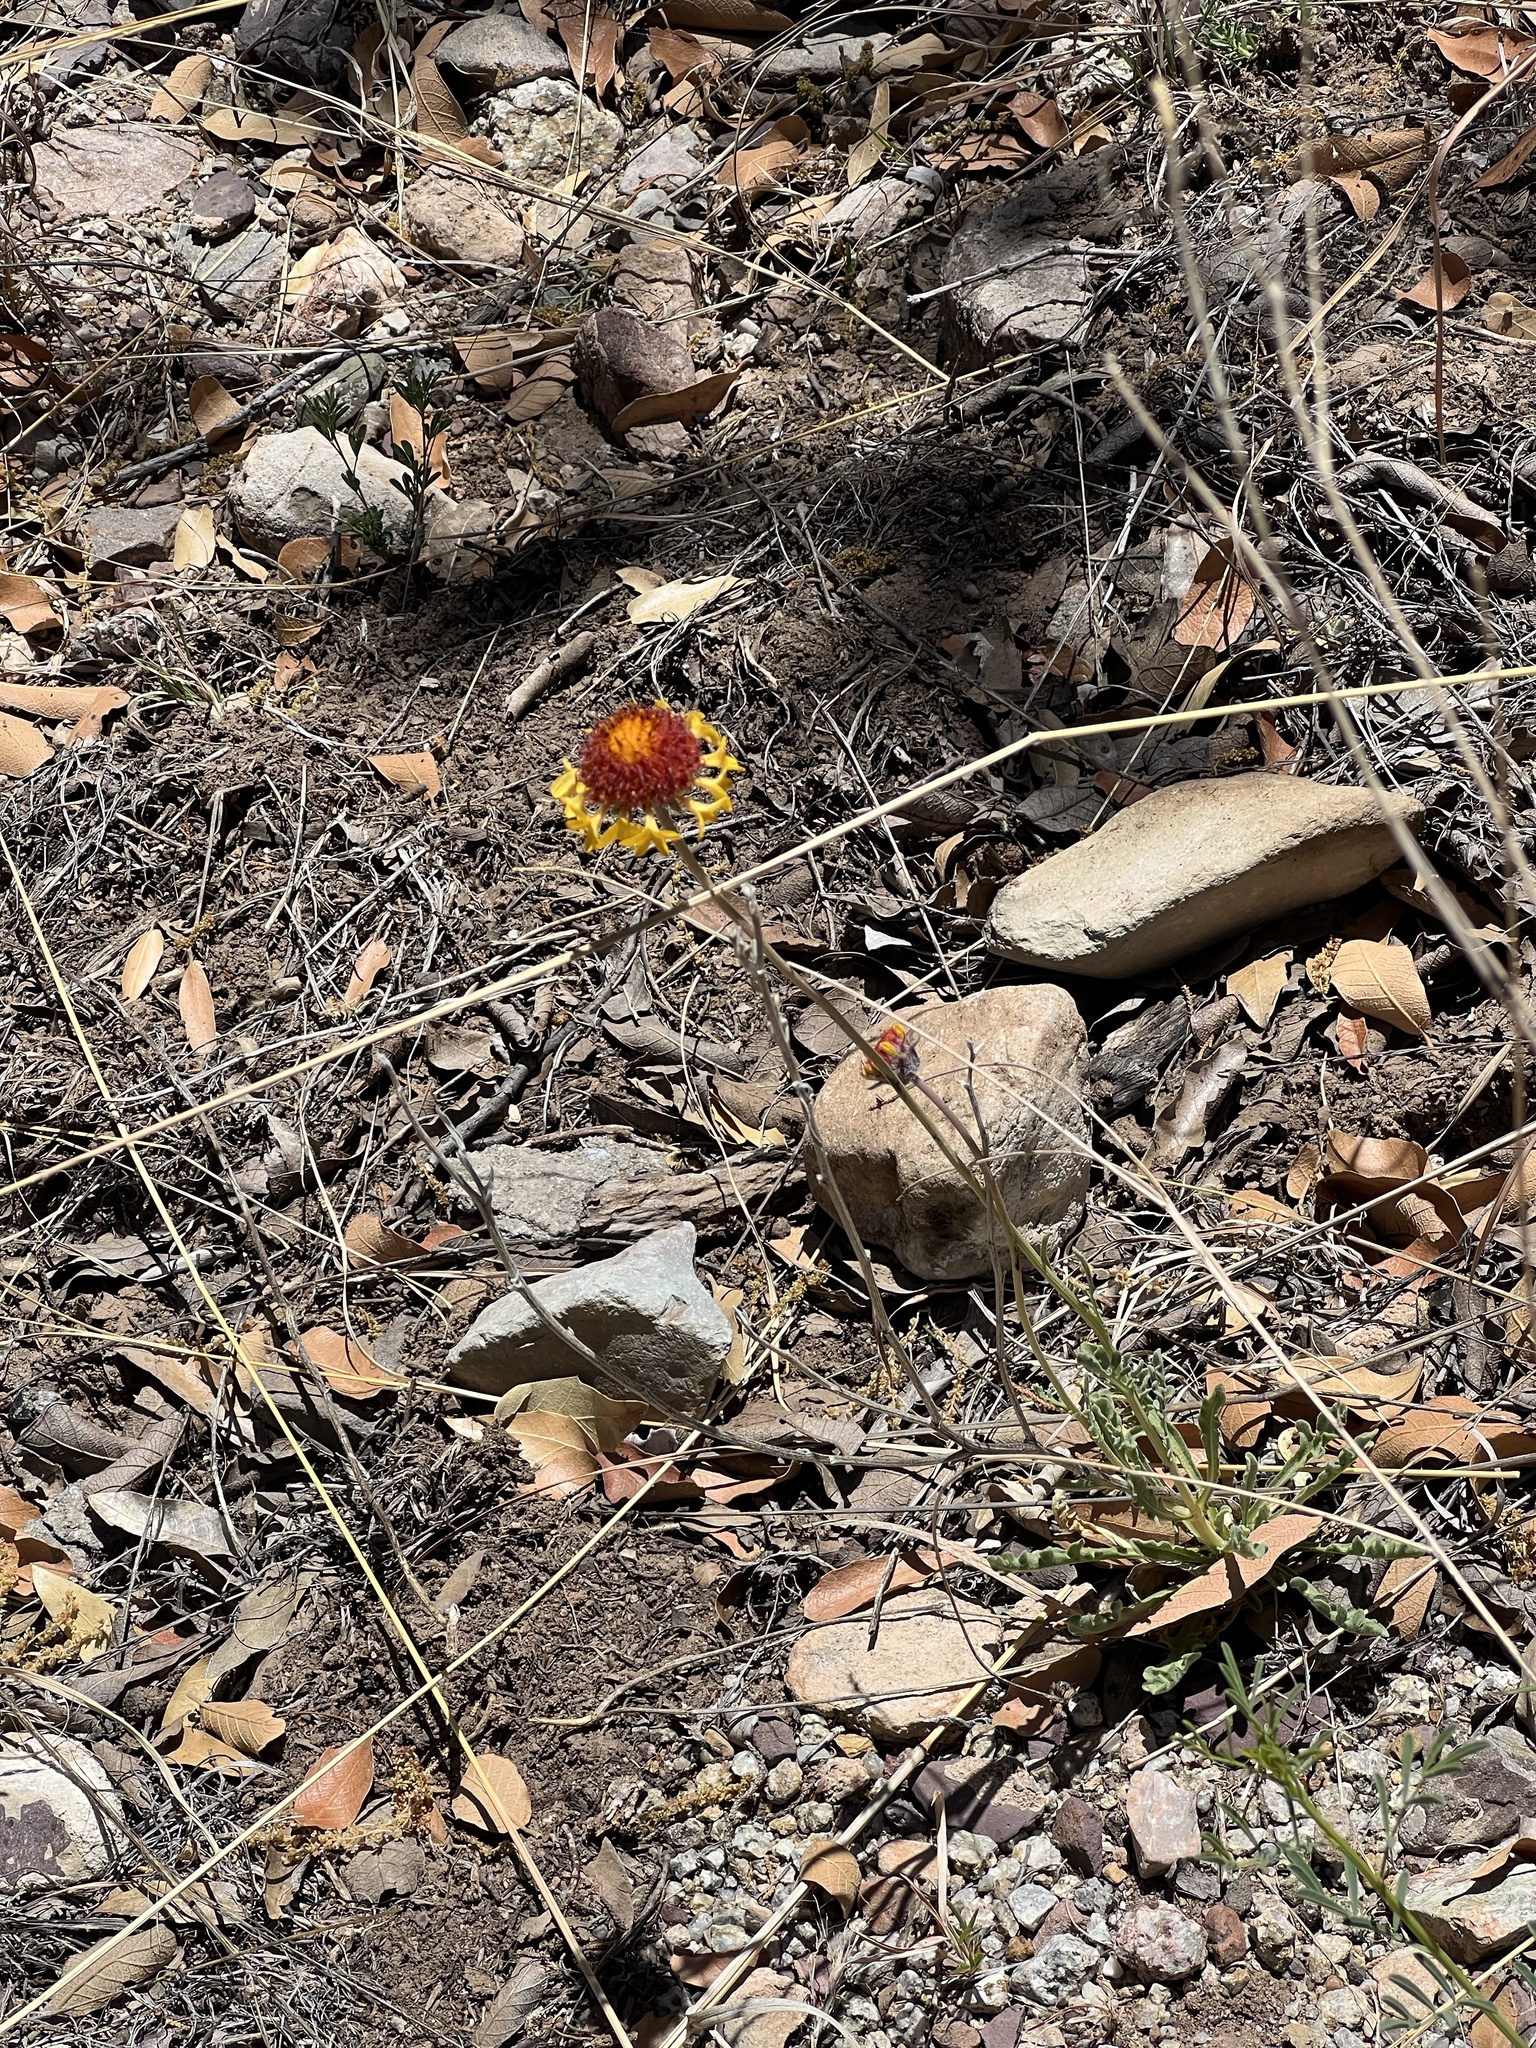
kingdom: Plantae
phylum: Tracheophyta
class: Magnoliopsida
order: Asterales
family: Asteraceae
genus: Gaillardia
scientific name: Gaillardia pinnatifida
